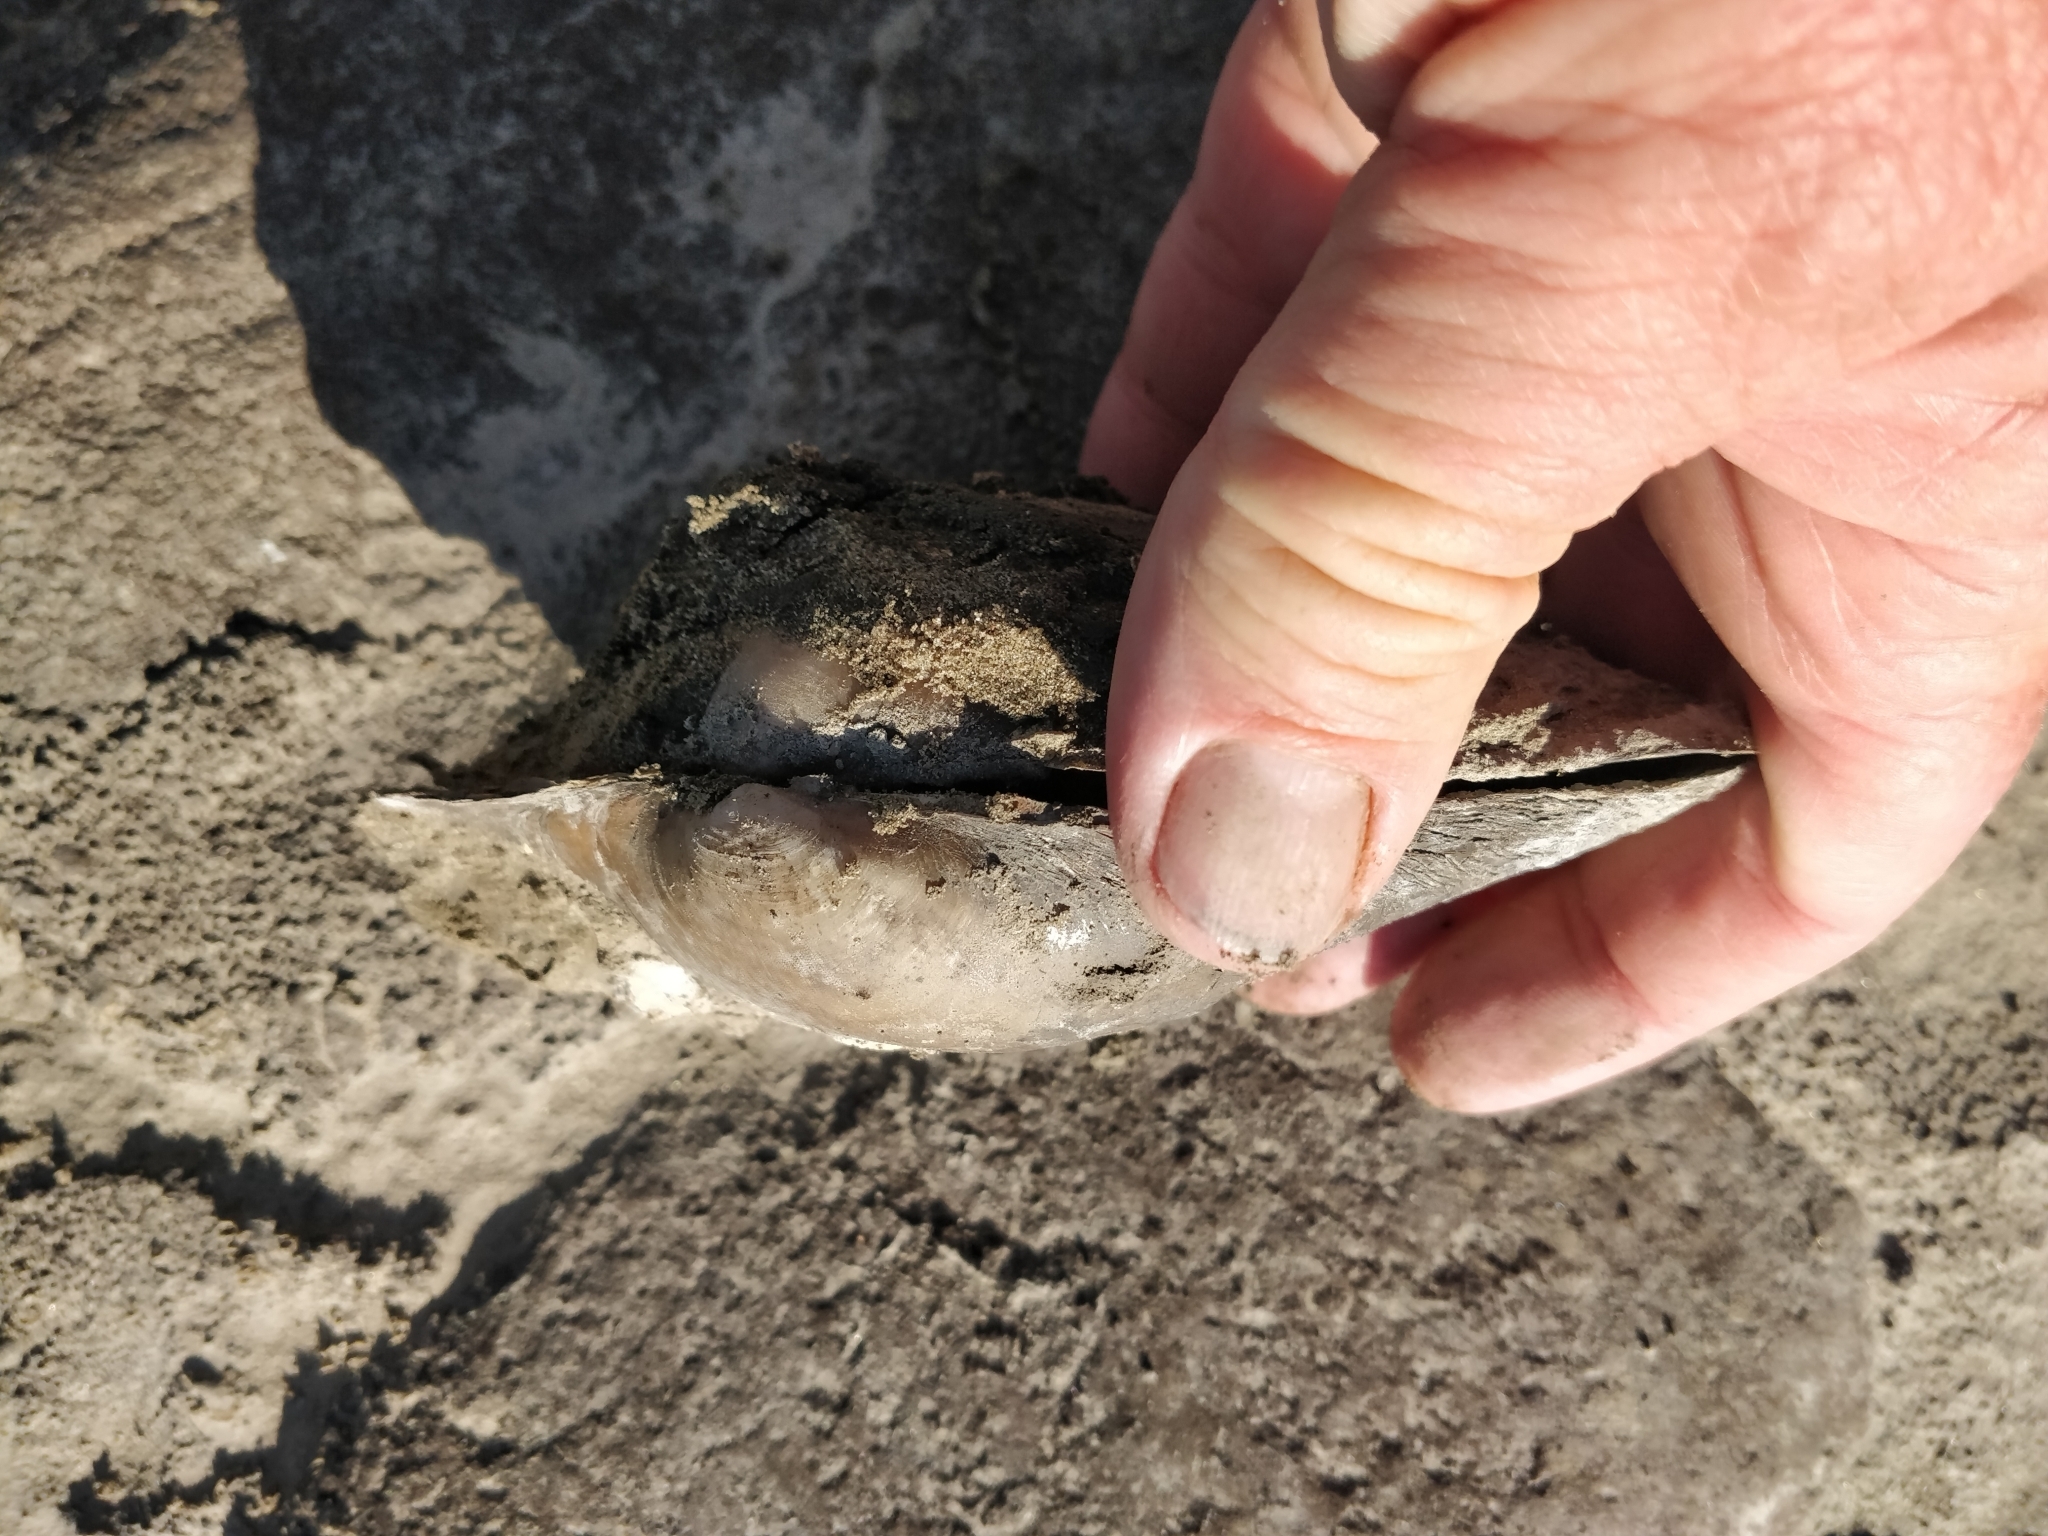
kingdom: Animalia
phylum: Mollusca
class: Bivalvia
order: Unionida
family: Unionidae
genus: Pyganodon
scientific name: Pyganodon grandis
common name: Giant floater
